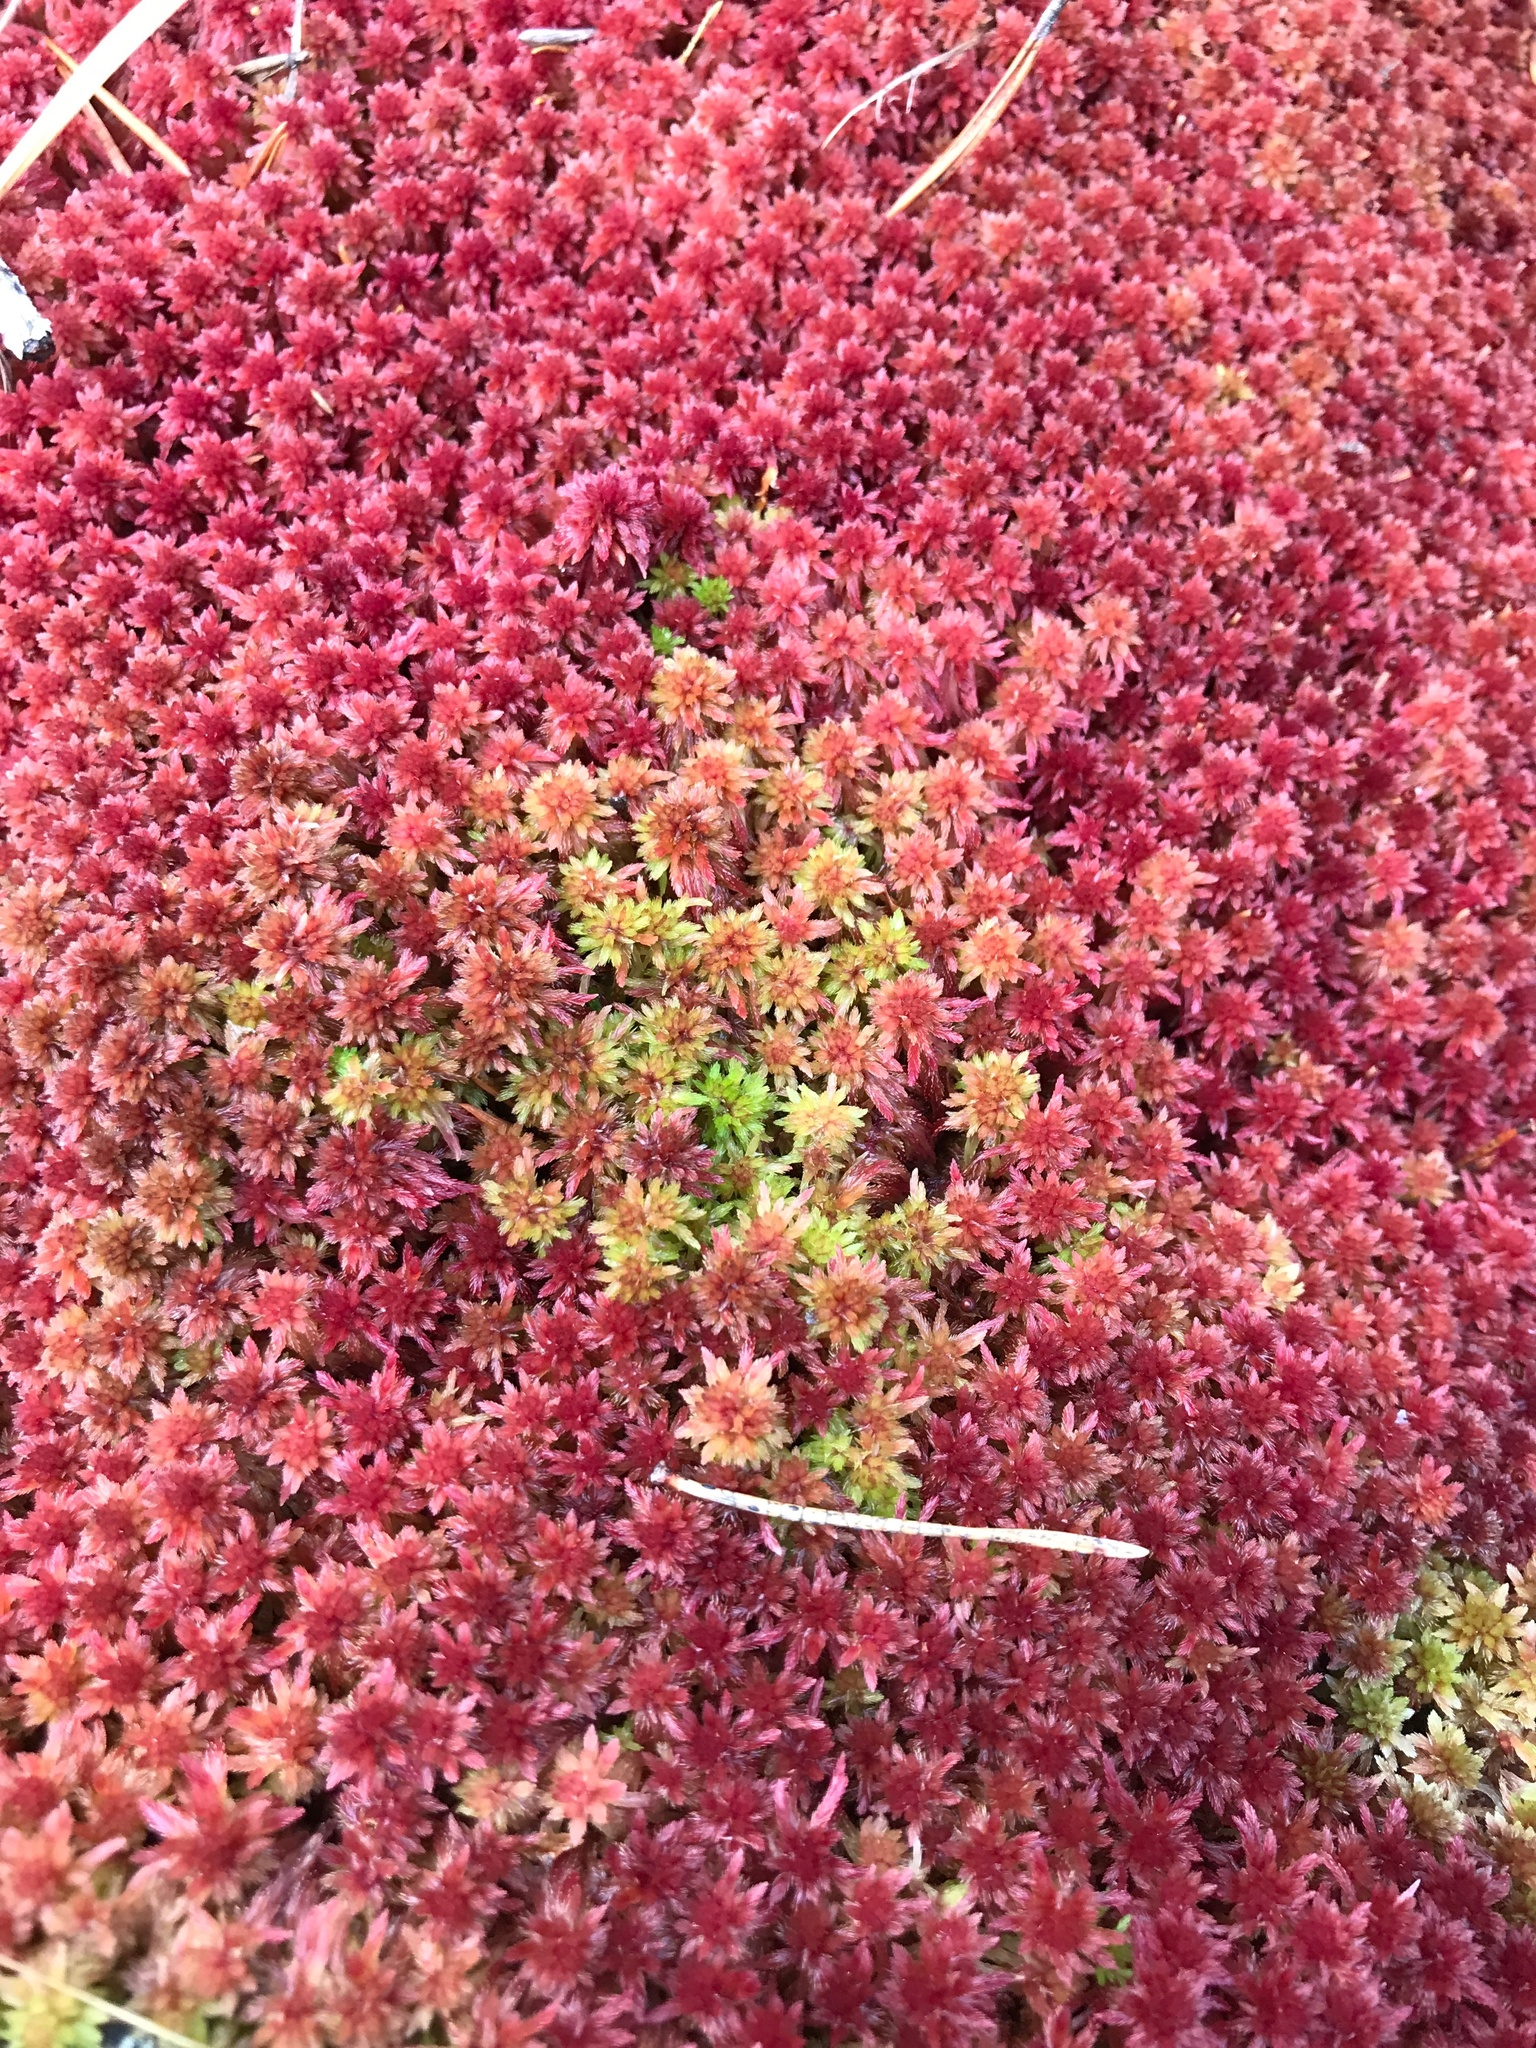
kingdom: Plantae
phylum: Bryophyta
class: Sphagnopsida
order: Sphagnales
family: Sphagnaceae
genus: Sphagnum
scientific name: Sphagnum capillifolium
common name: Small red peat moss
